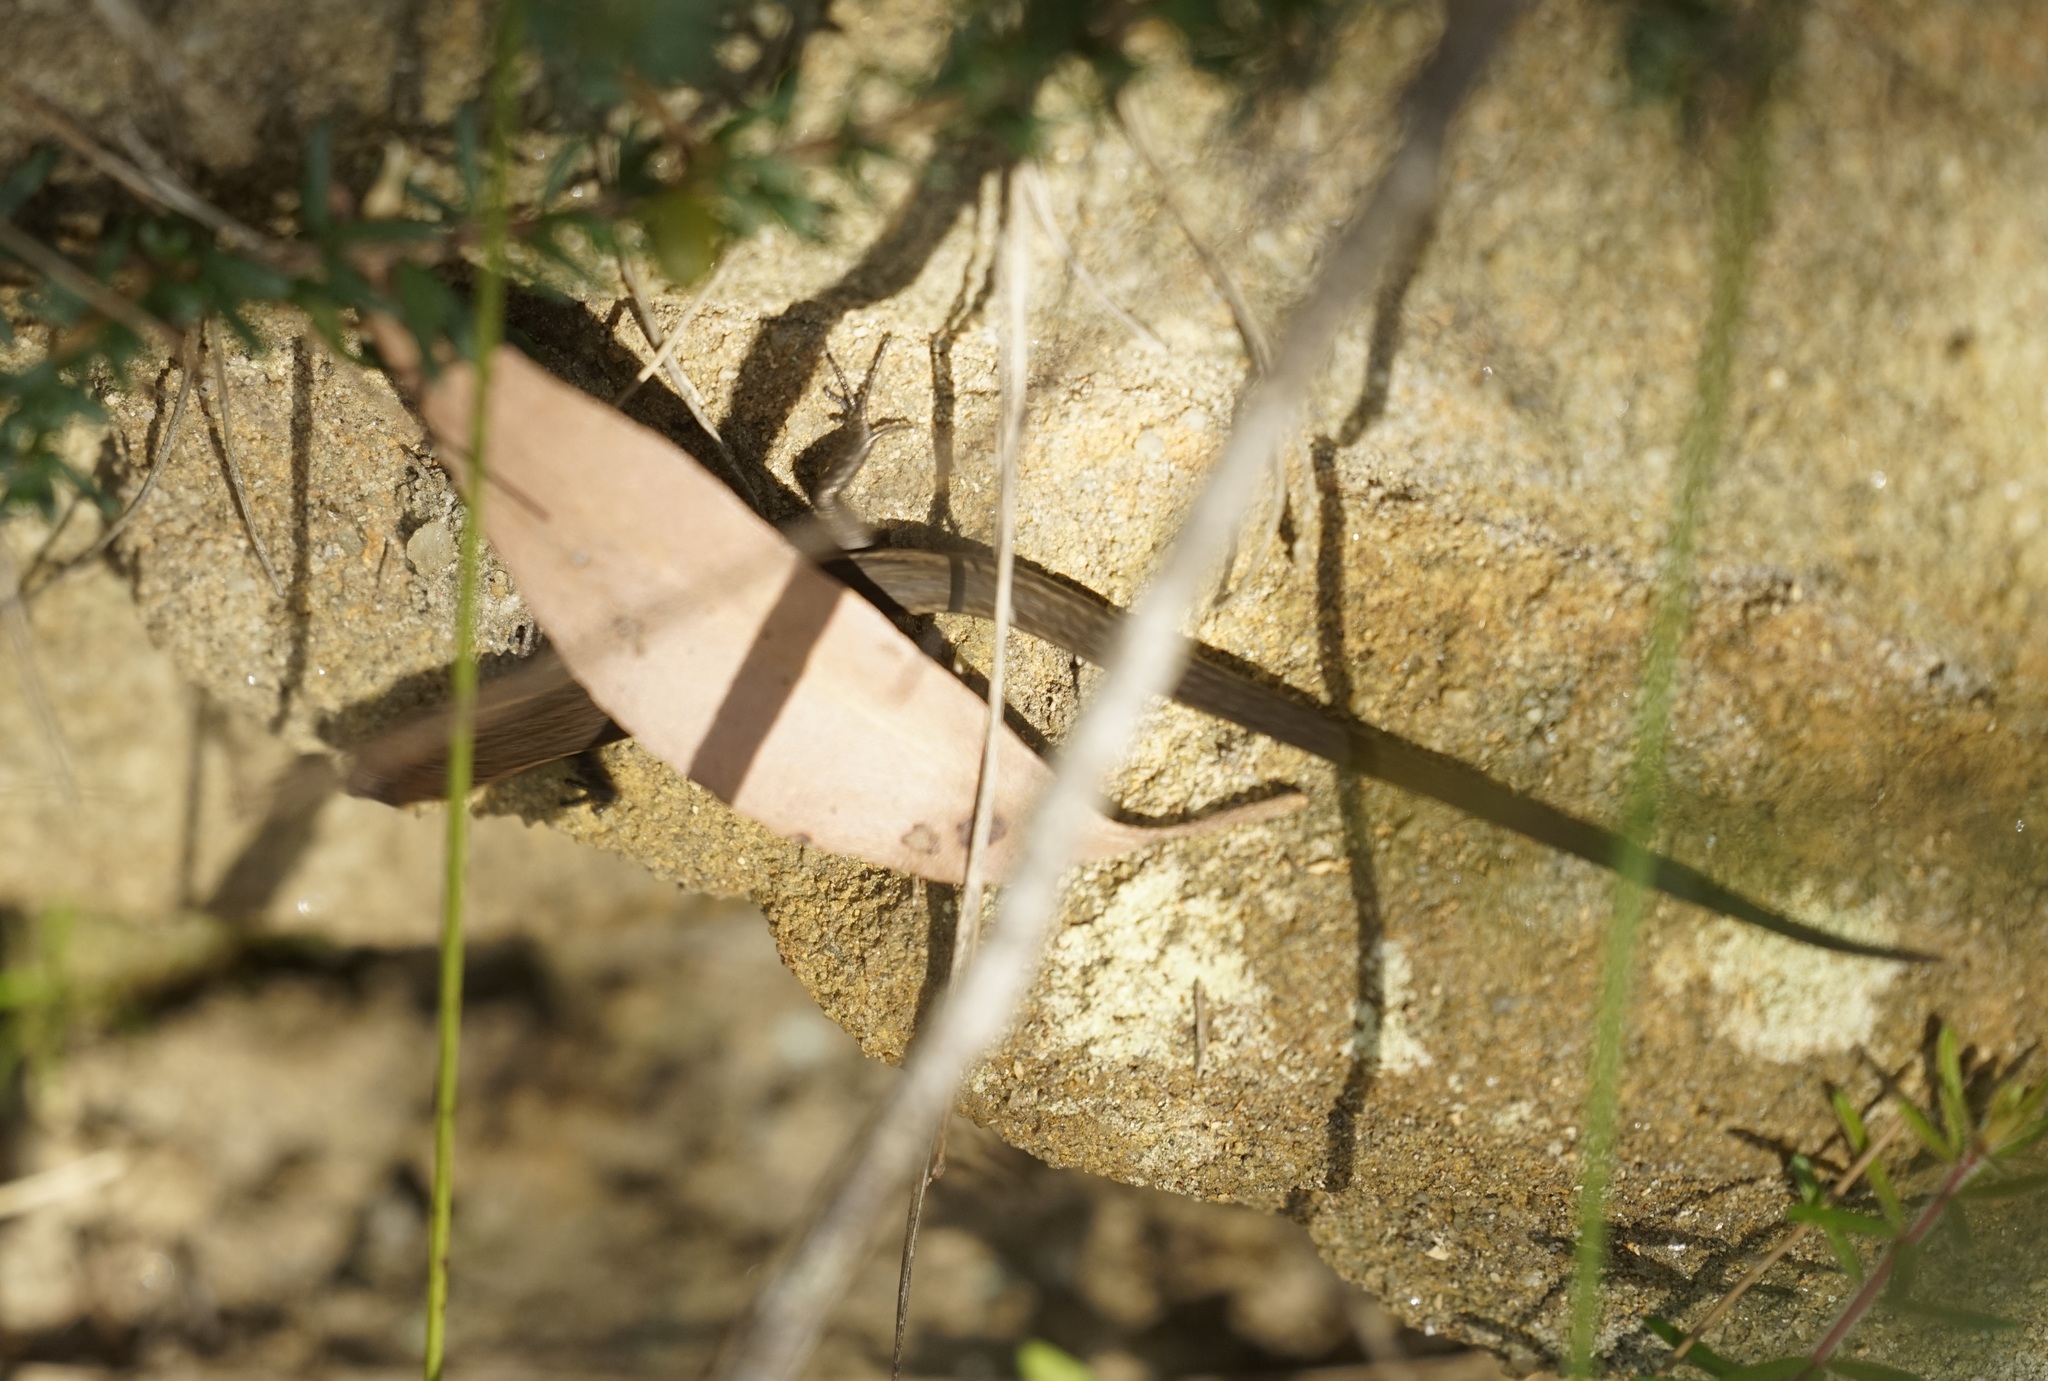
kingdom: Animalia
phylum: Chordata
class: Squamata
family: Scincidae
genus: Lampropholis
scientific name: Lampropholis delicata
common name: Plague skink
